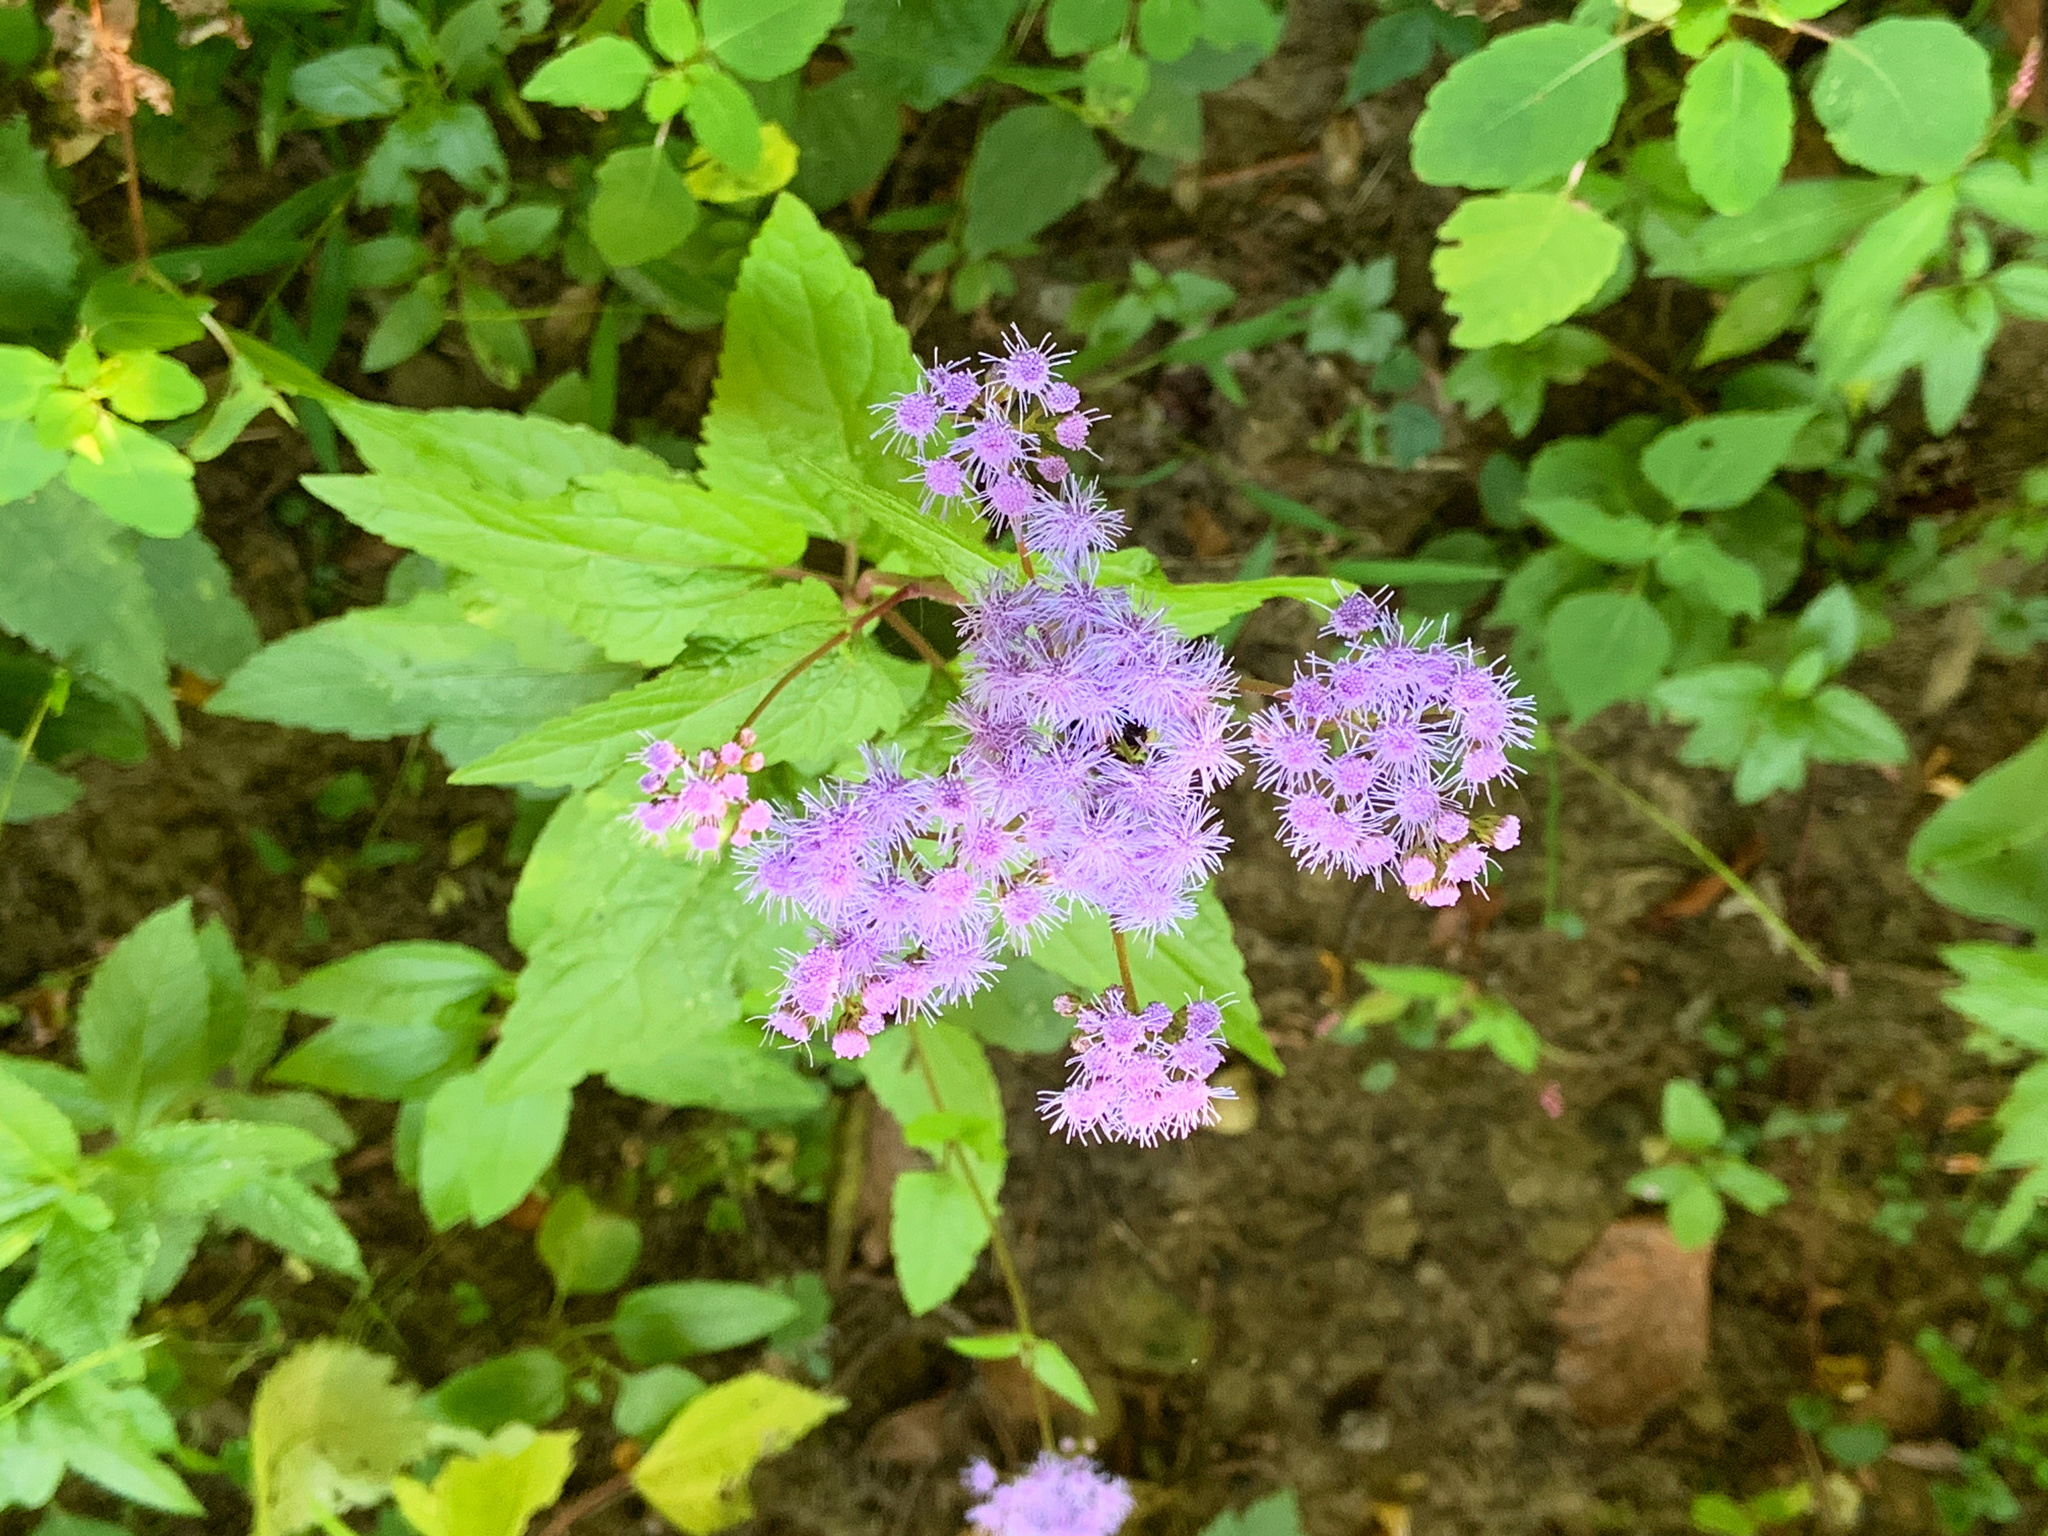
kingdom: Plantae
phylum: Tracheophyta
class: Magnoliopsida
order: Asterales
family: Asteraceae
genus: Conoclinium
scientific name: Conoclinium coelestinum
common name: Blue mistflower
